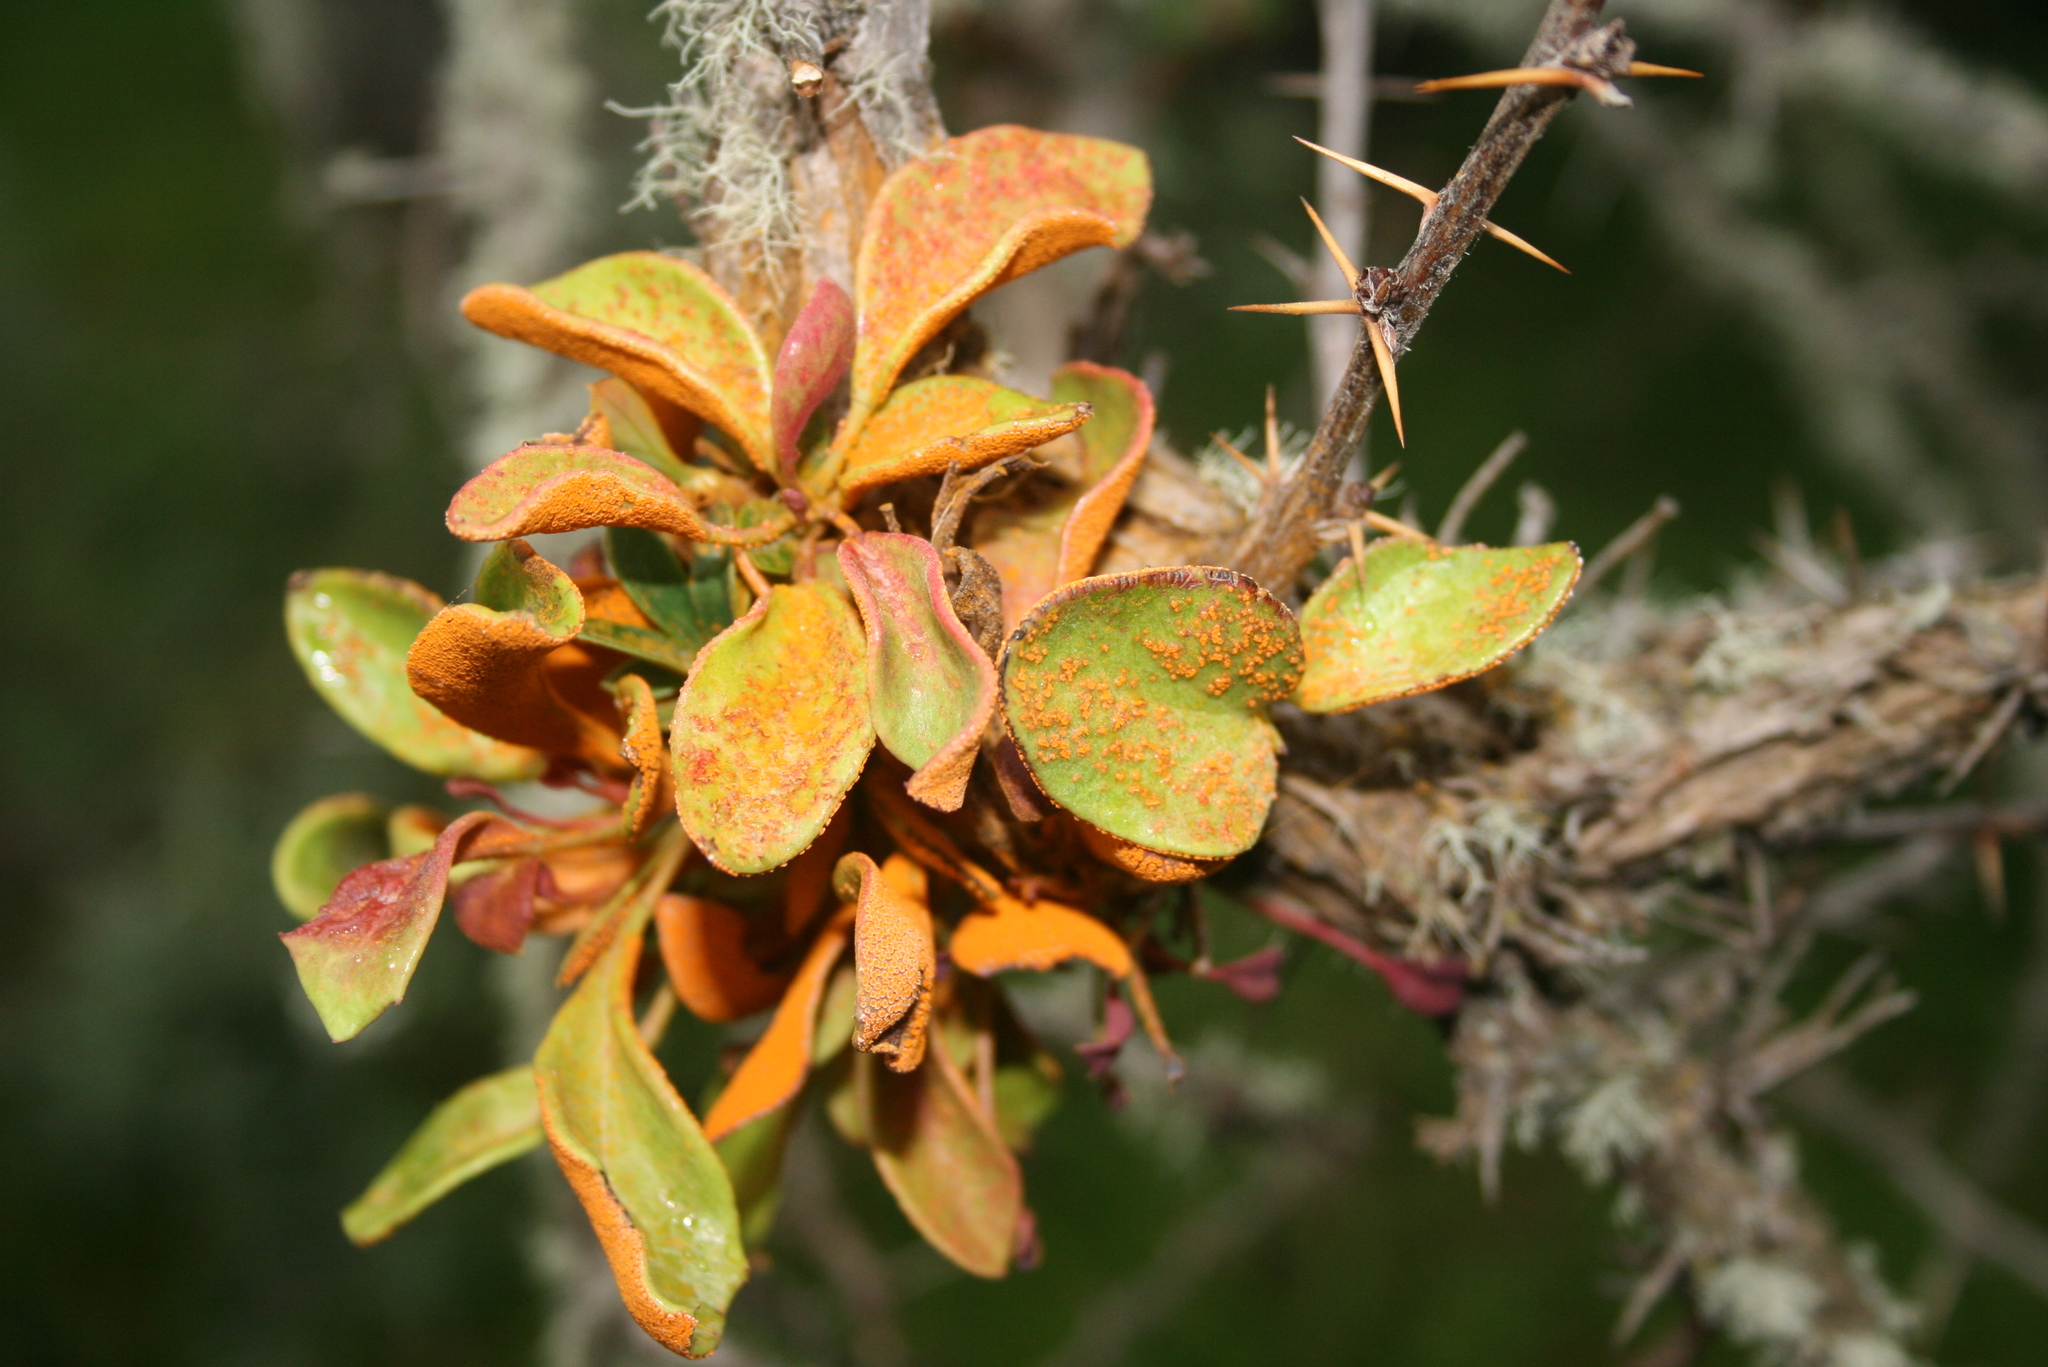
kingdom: Fungi
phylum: Basidiomycota
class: Pucciniomycetes
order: Pucciniales
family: Pucciniaceae
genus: Puccinia
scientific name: Puccinia magellanica
